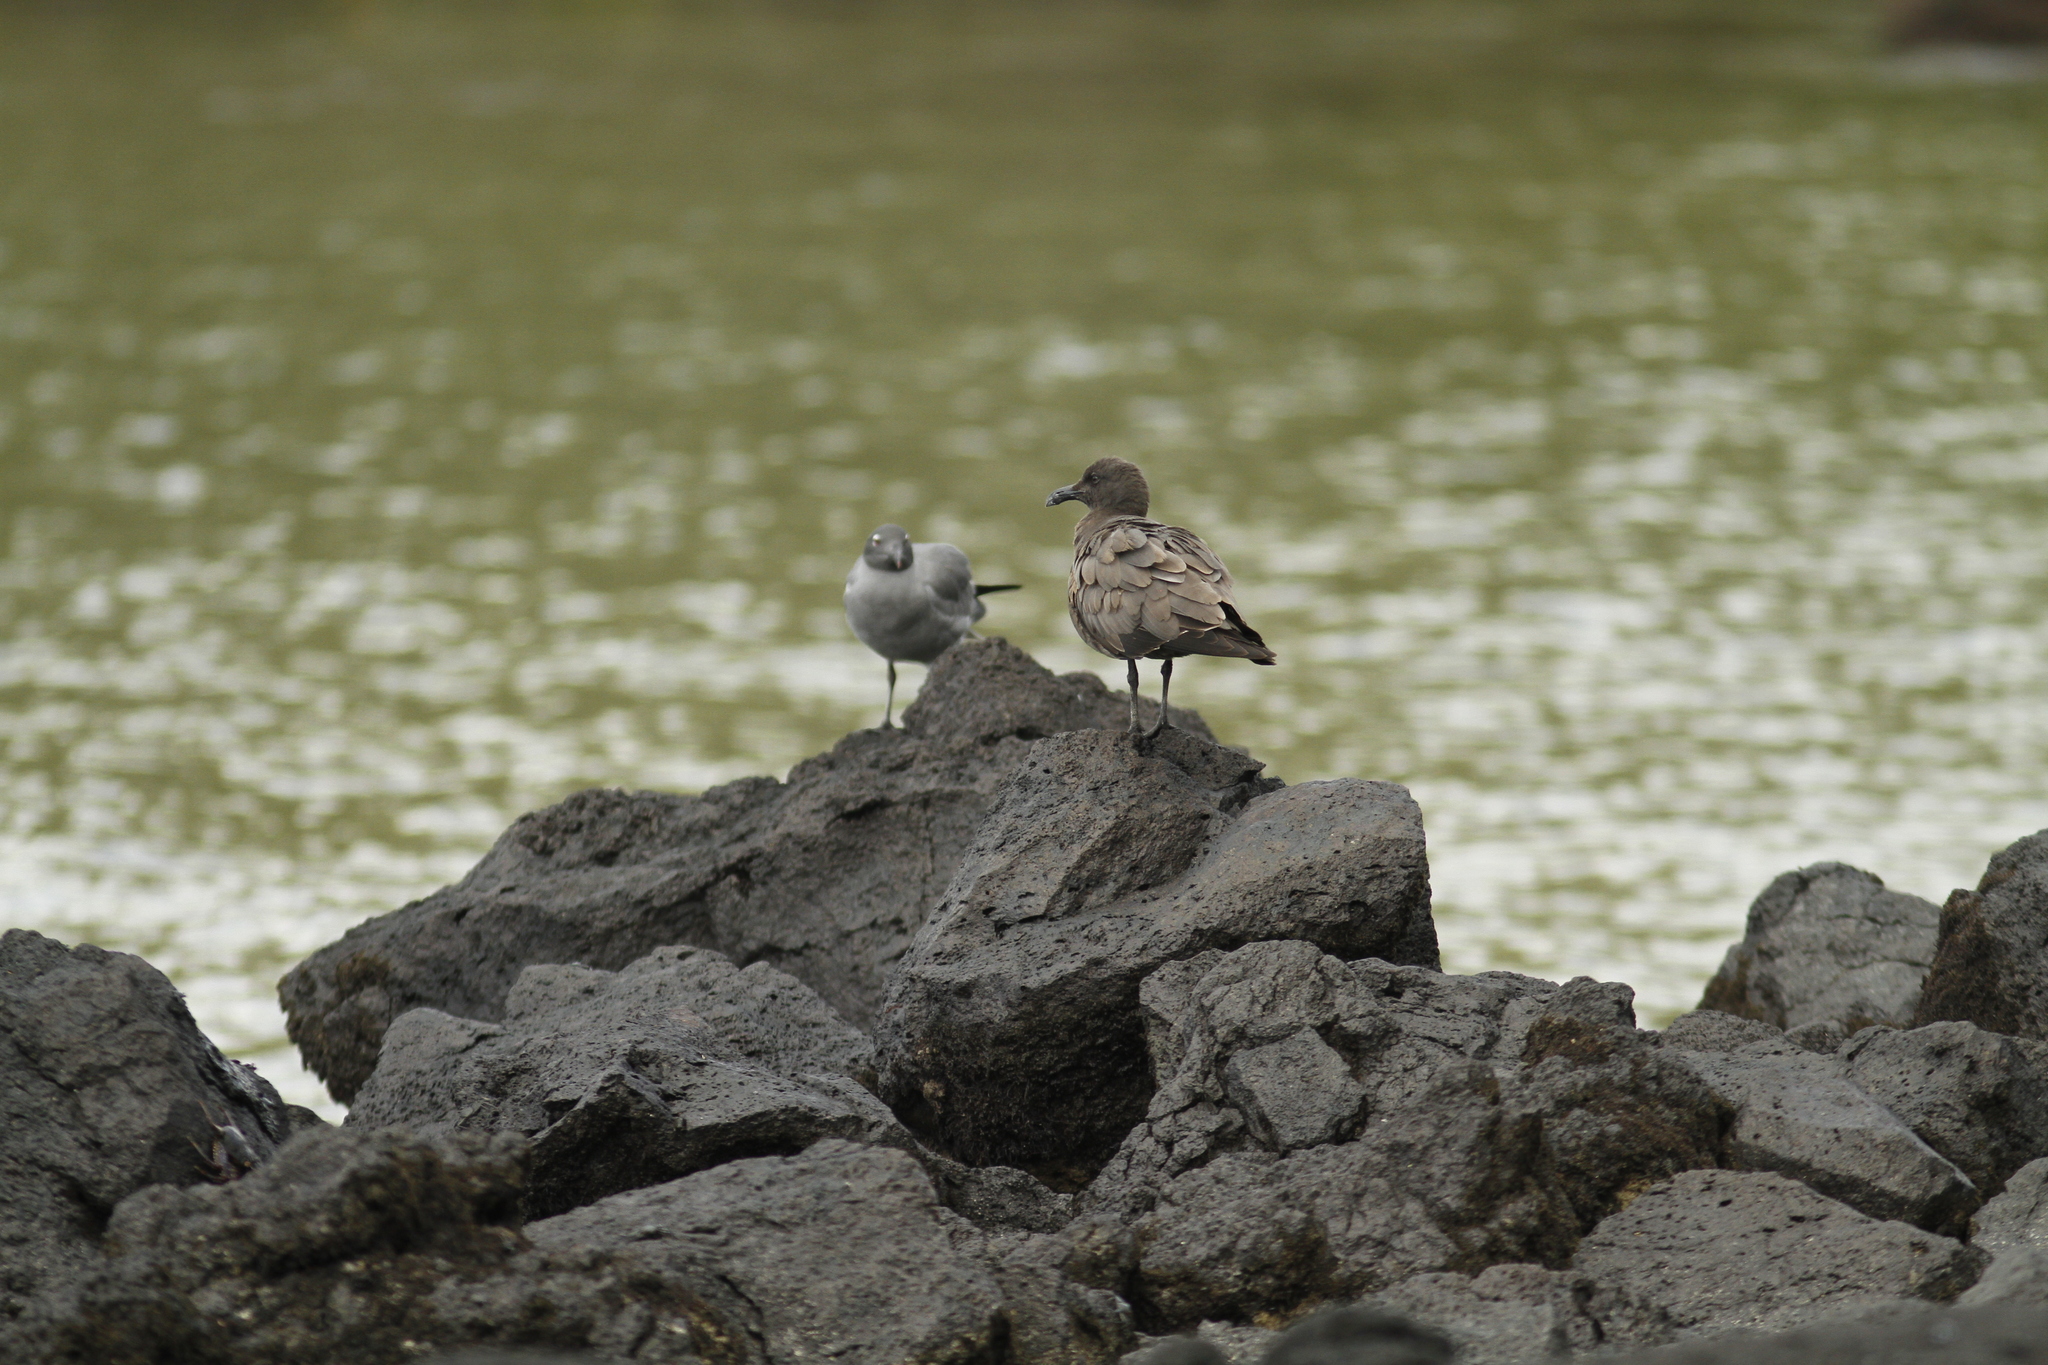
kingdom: Animalia
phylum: Chordata
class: Aves
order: Charadriiformes
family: Laridae
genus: Leucophaeus
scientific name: Leucophaeus fuliginosus
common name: Lava gull
